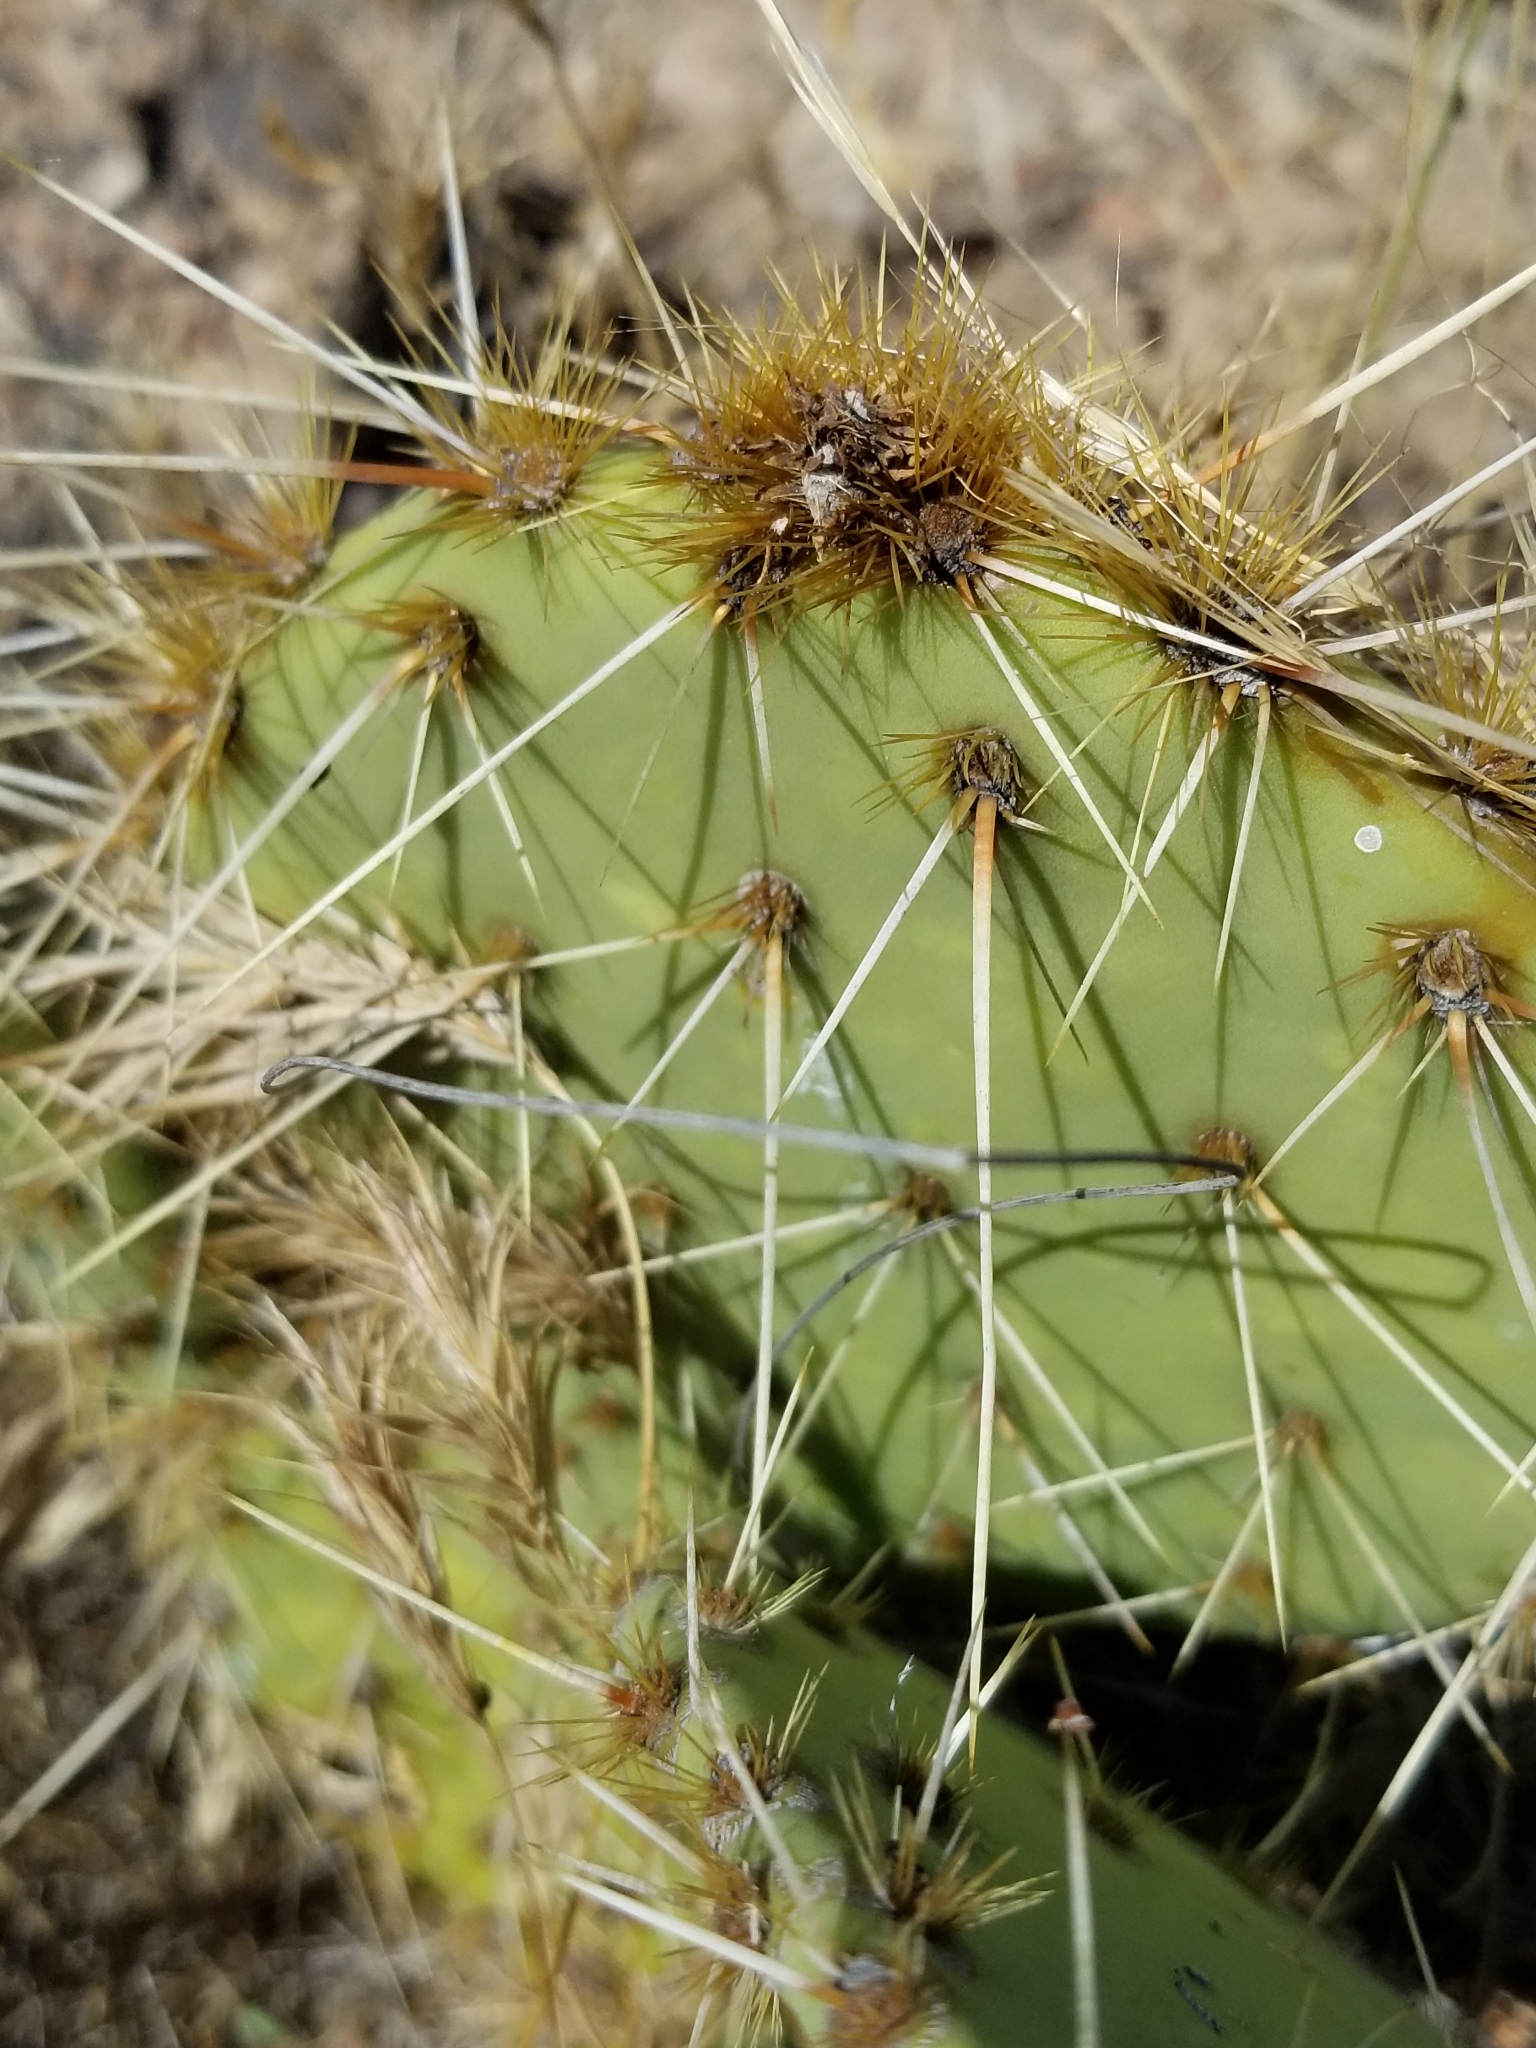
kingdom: Plantae
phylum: Tracheophyta
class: Magnoliopsida
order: Caryophyllales
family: Cactaceae
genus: Opuntia
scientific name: Opuntia phaeacantha
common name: New mexico prickly-pear
